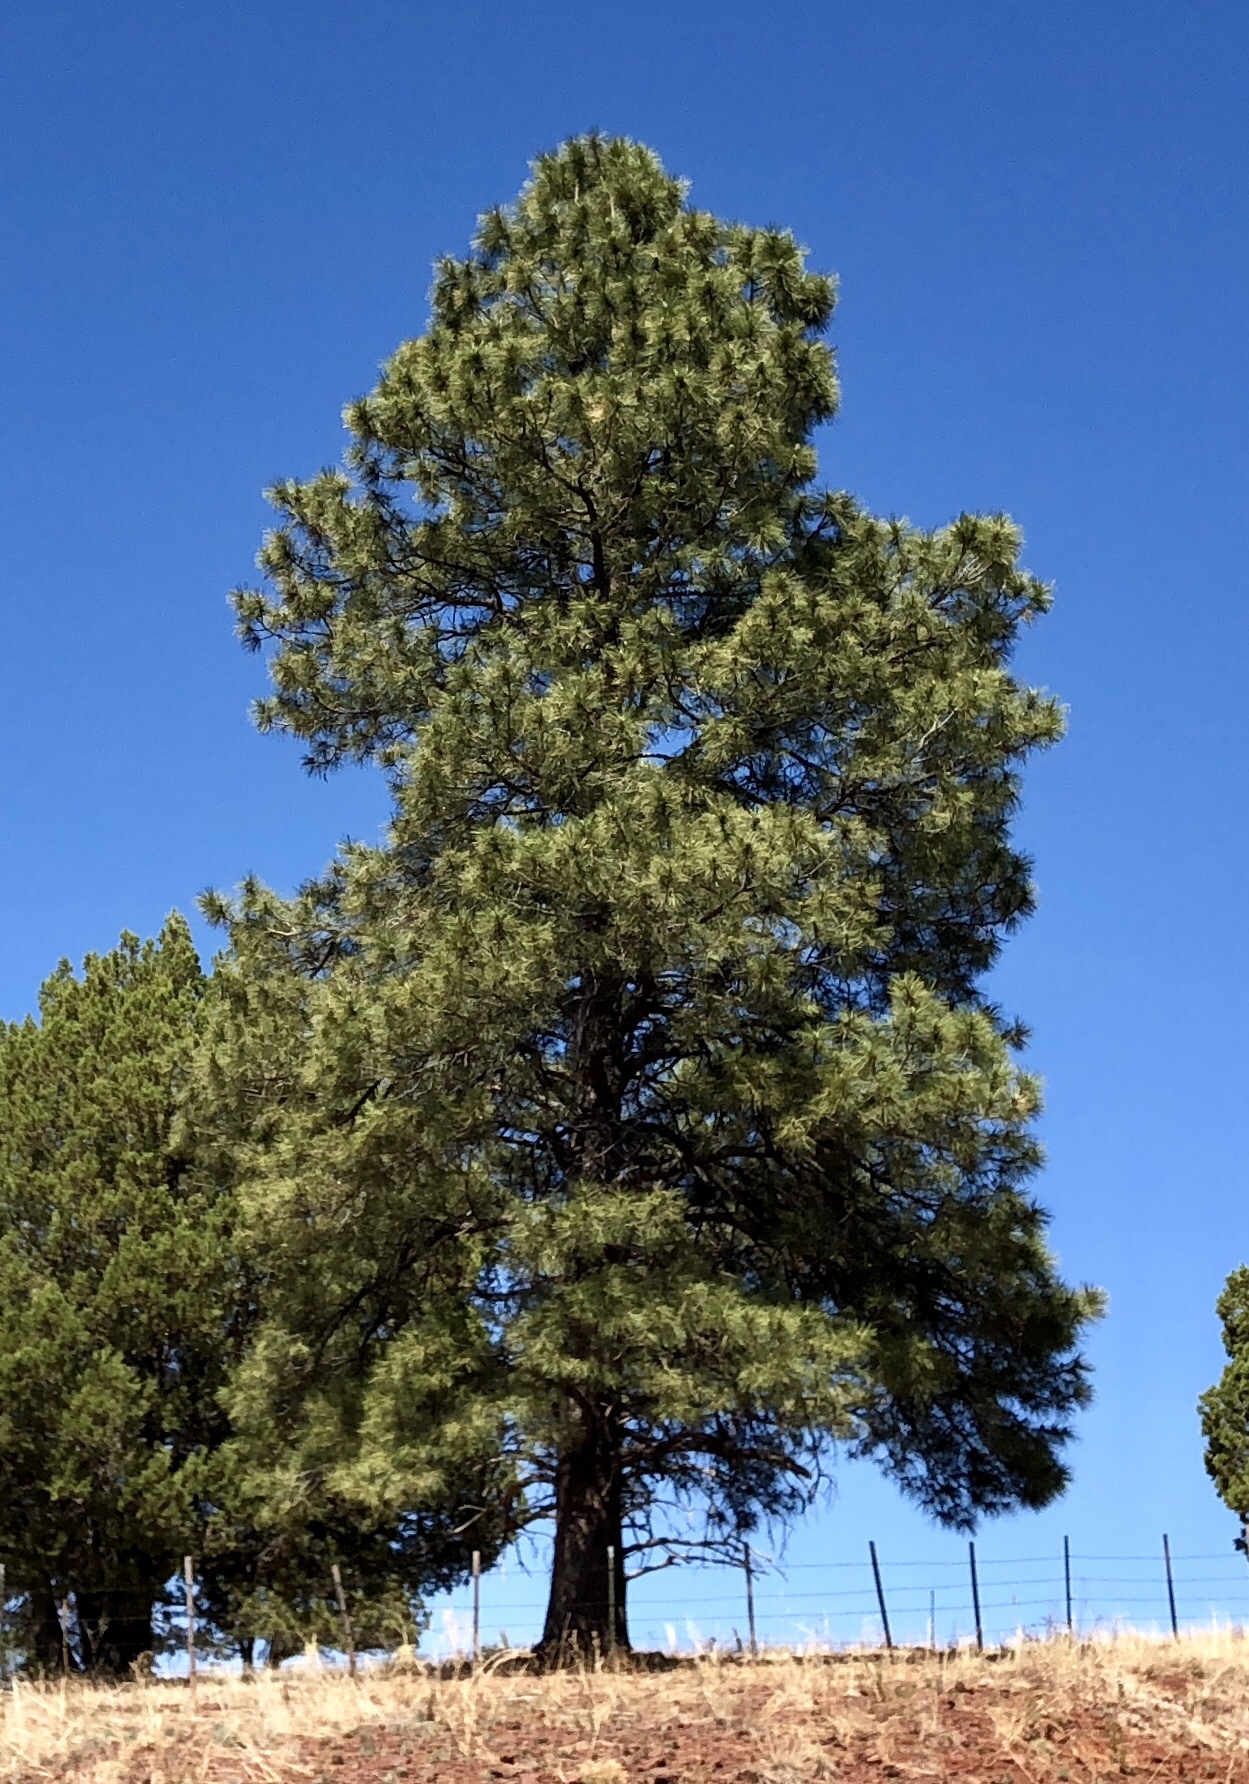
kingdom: Plantae
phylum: Tracheophyta
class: Pinopsida
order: Pinales
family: Pinaceae
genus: Pinus
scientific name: Pinus ponderosa
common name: Western yellow-pine
